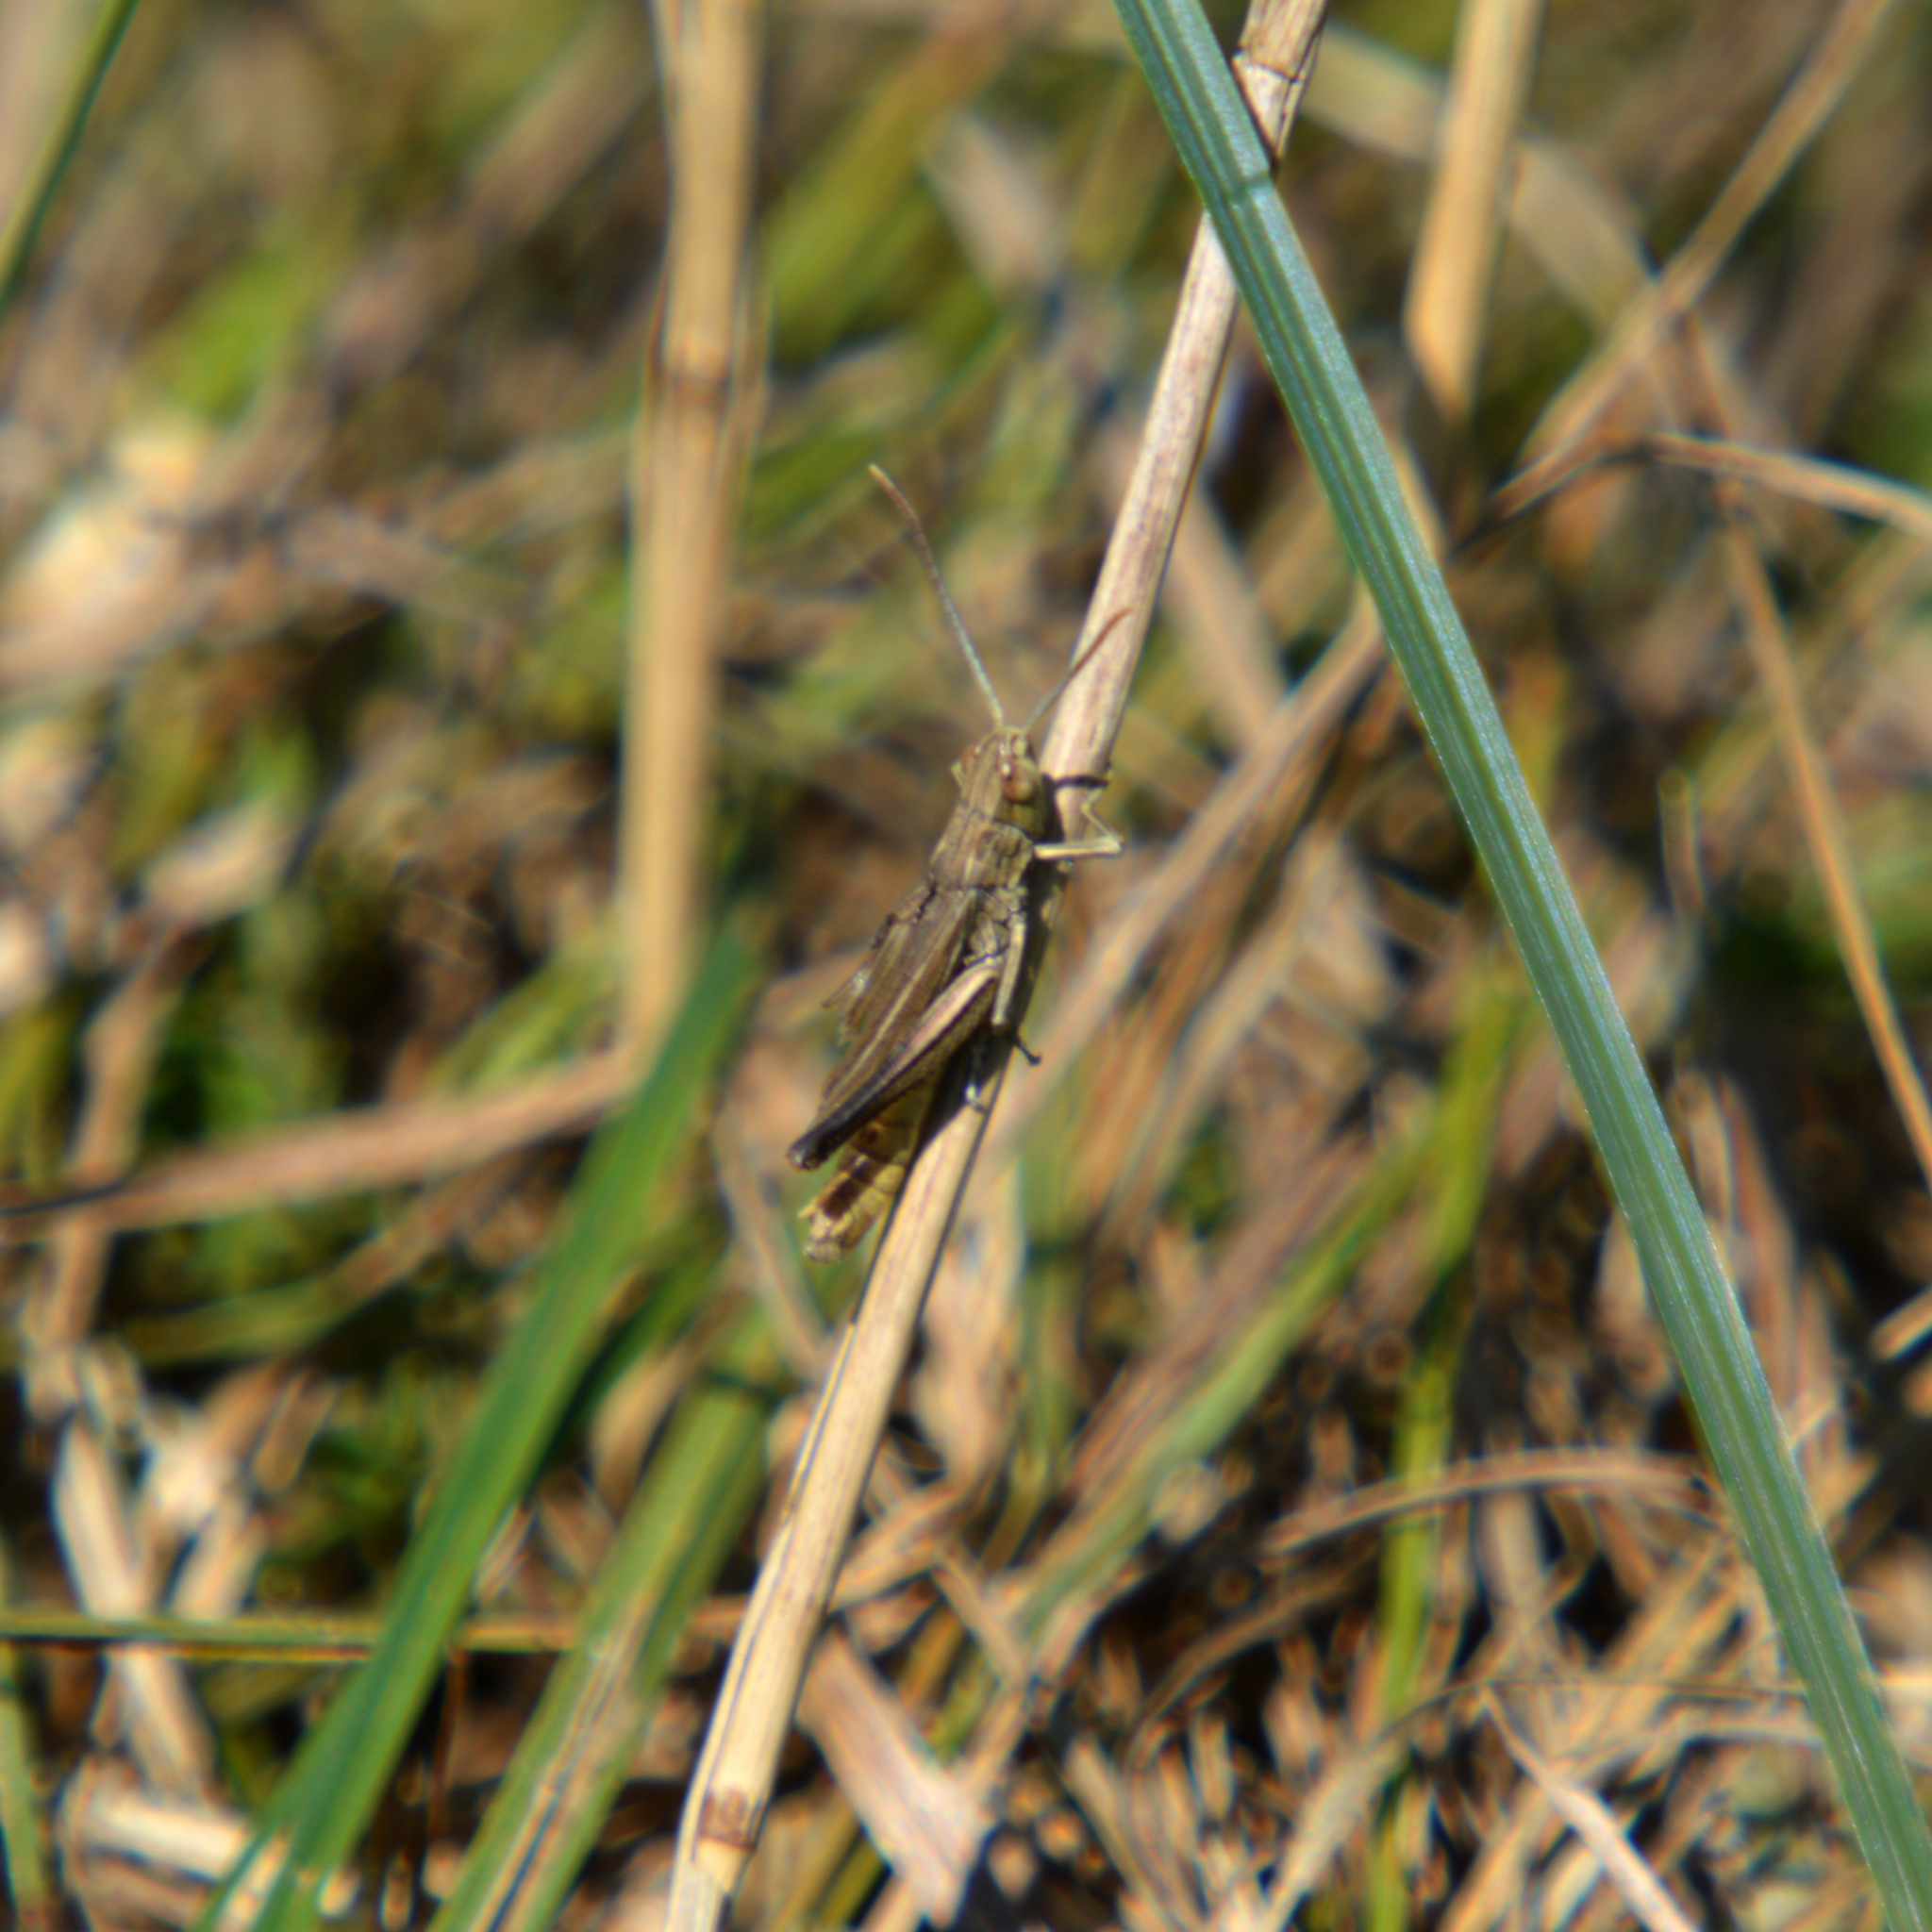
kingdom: Animalia
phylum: Arthropoda
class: Insecta
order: Orthoptera
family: Acrididae
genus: Chorthippus
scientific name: Chorthippus oschei
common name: Carpathian dancing grasshopper
